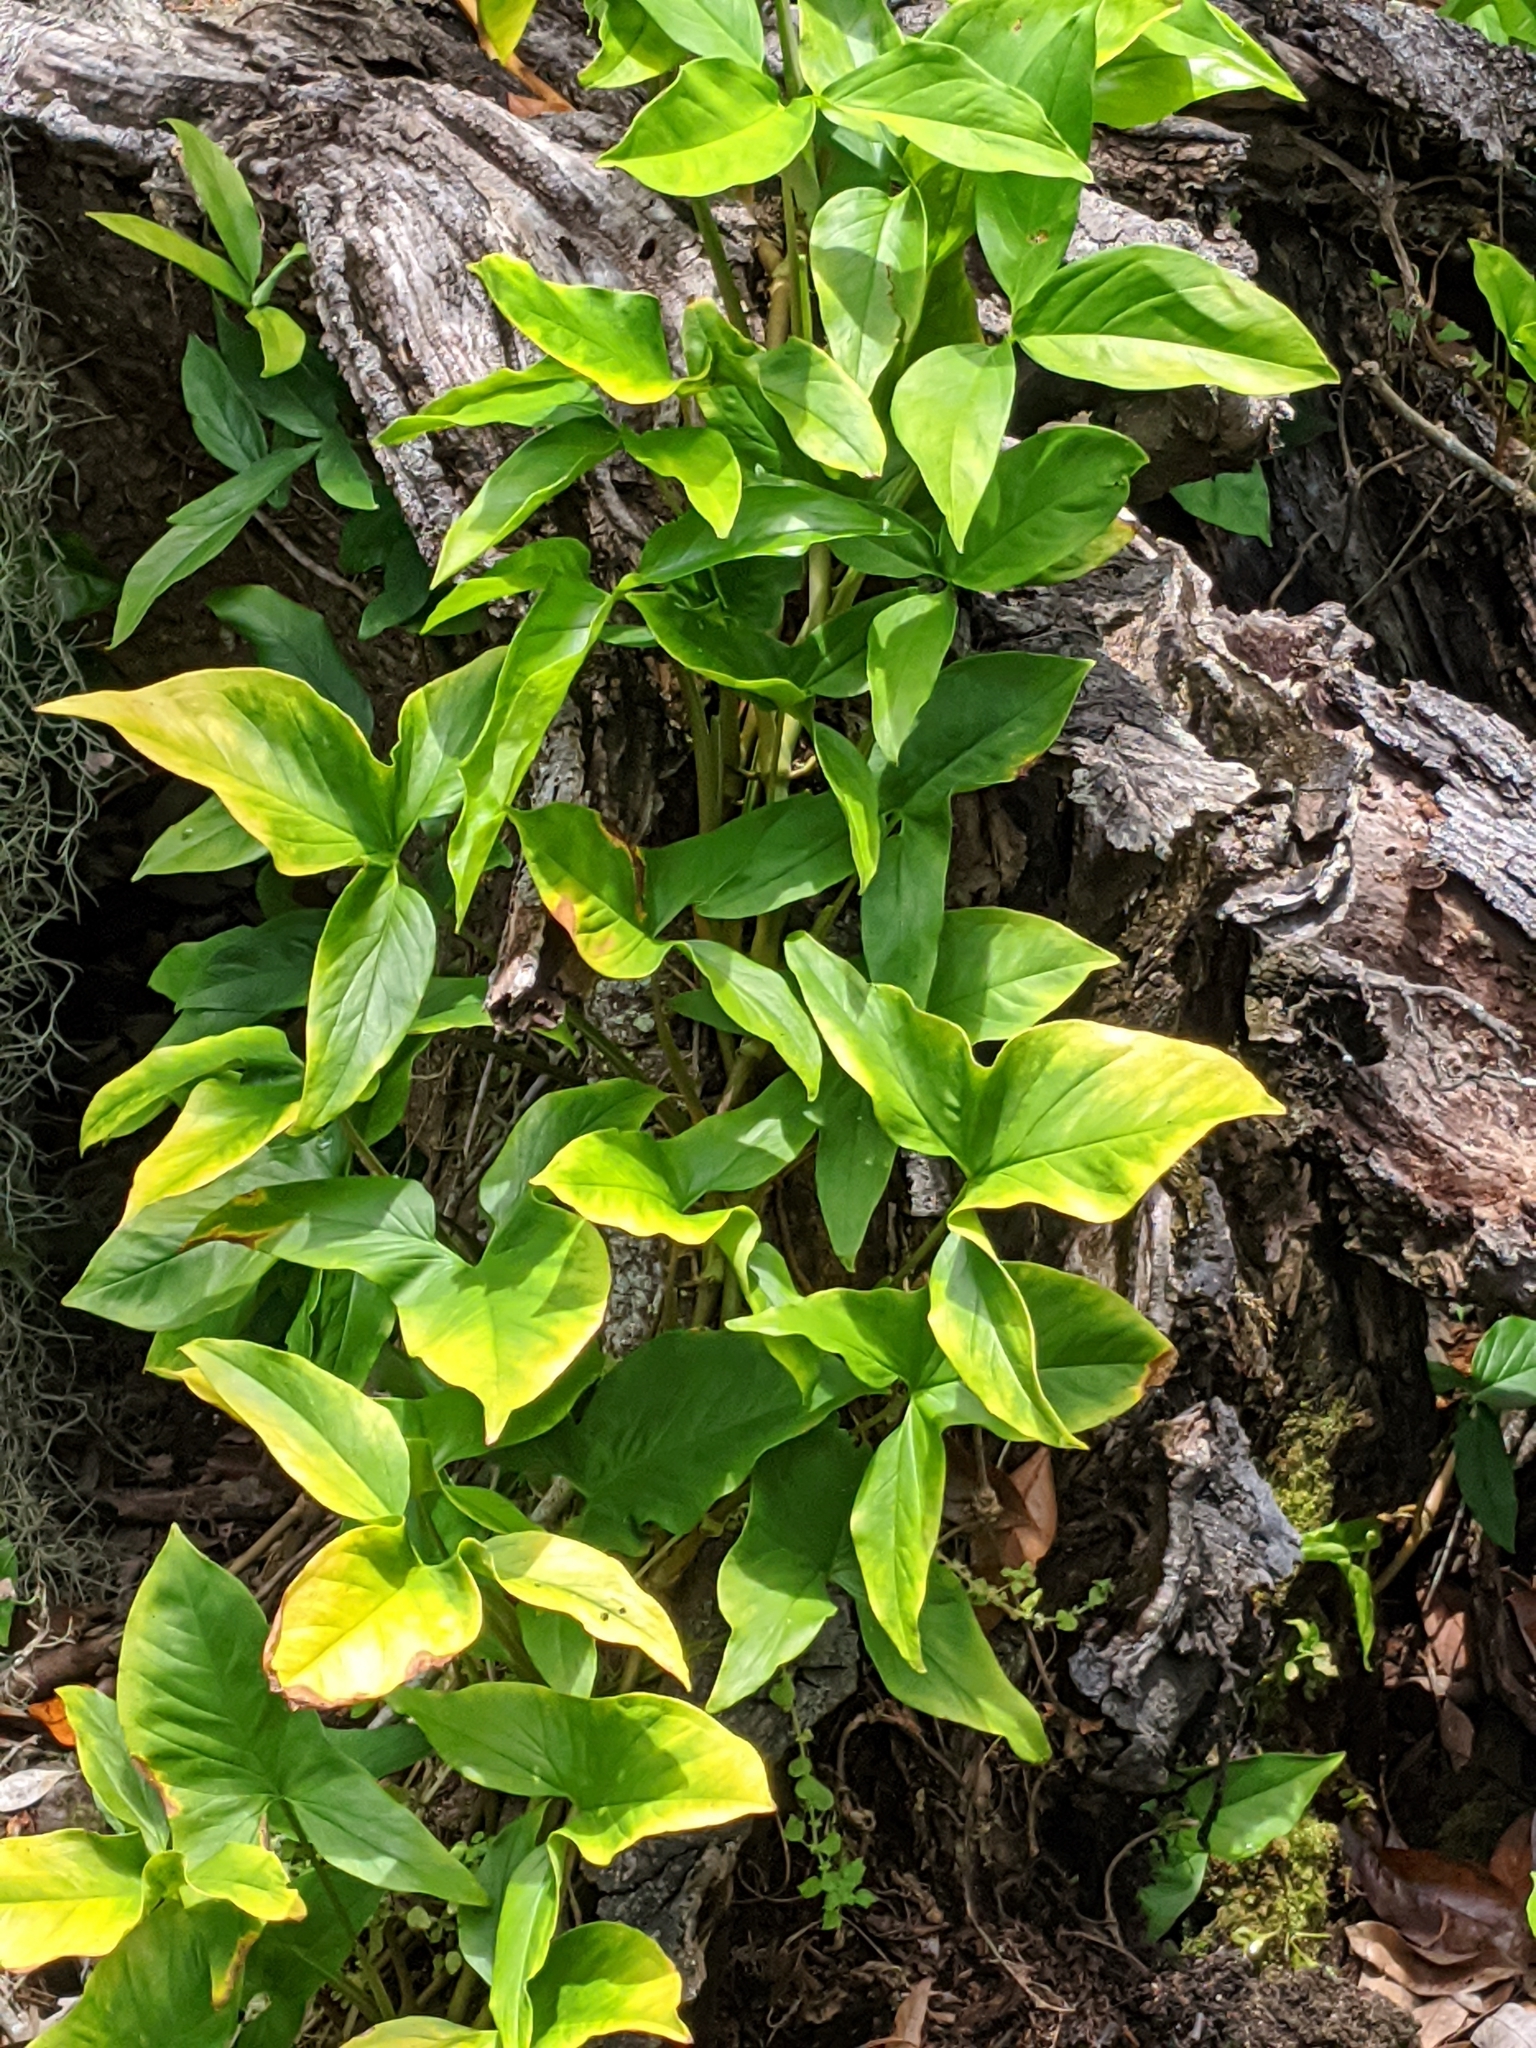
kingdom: Plantae
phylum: Tracheophyta
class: Liliopsida
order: Alismatales
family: Araceae
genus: Syngonium
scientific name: Syngonium podophyllum
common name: American evergreen
